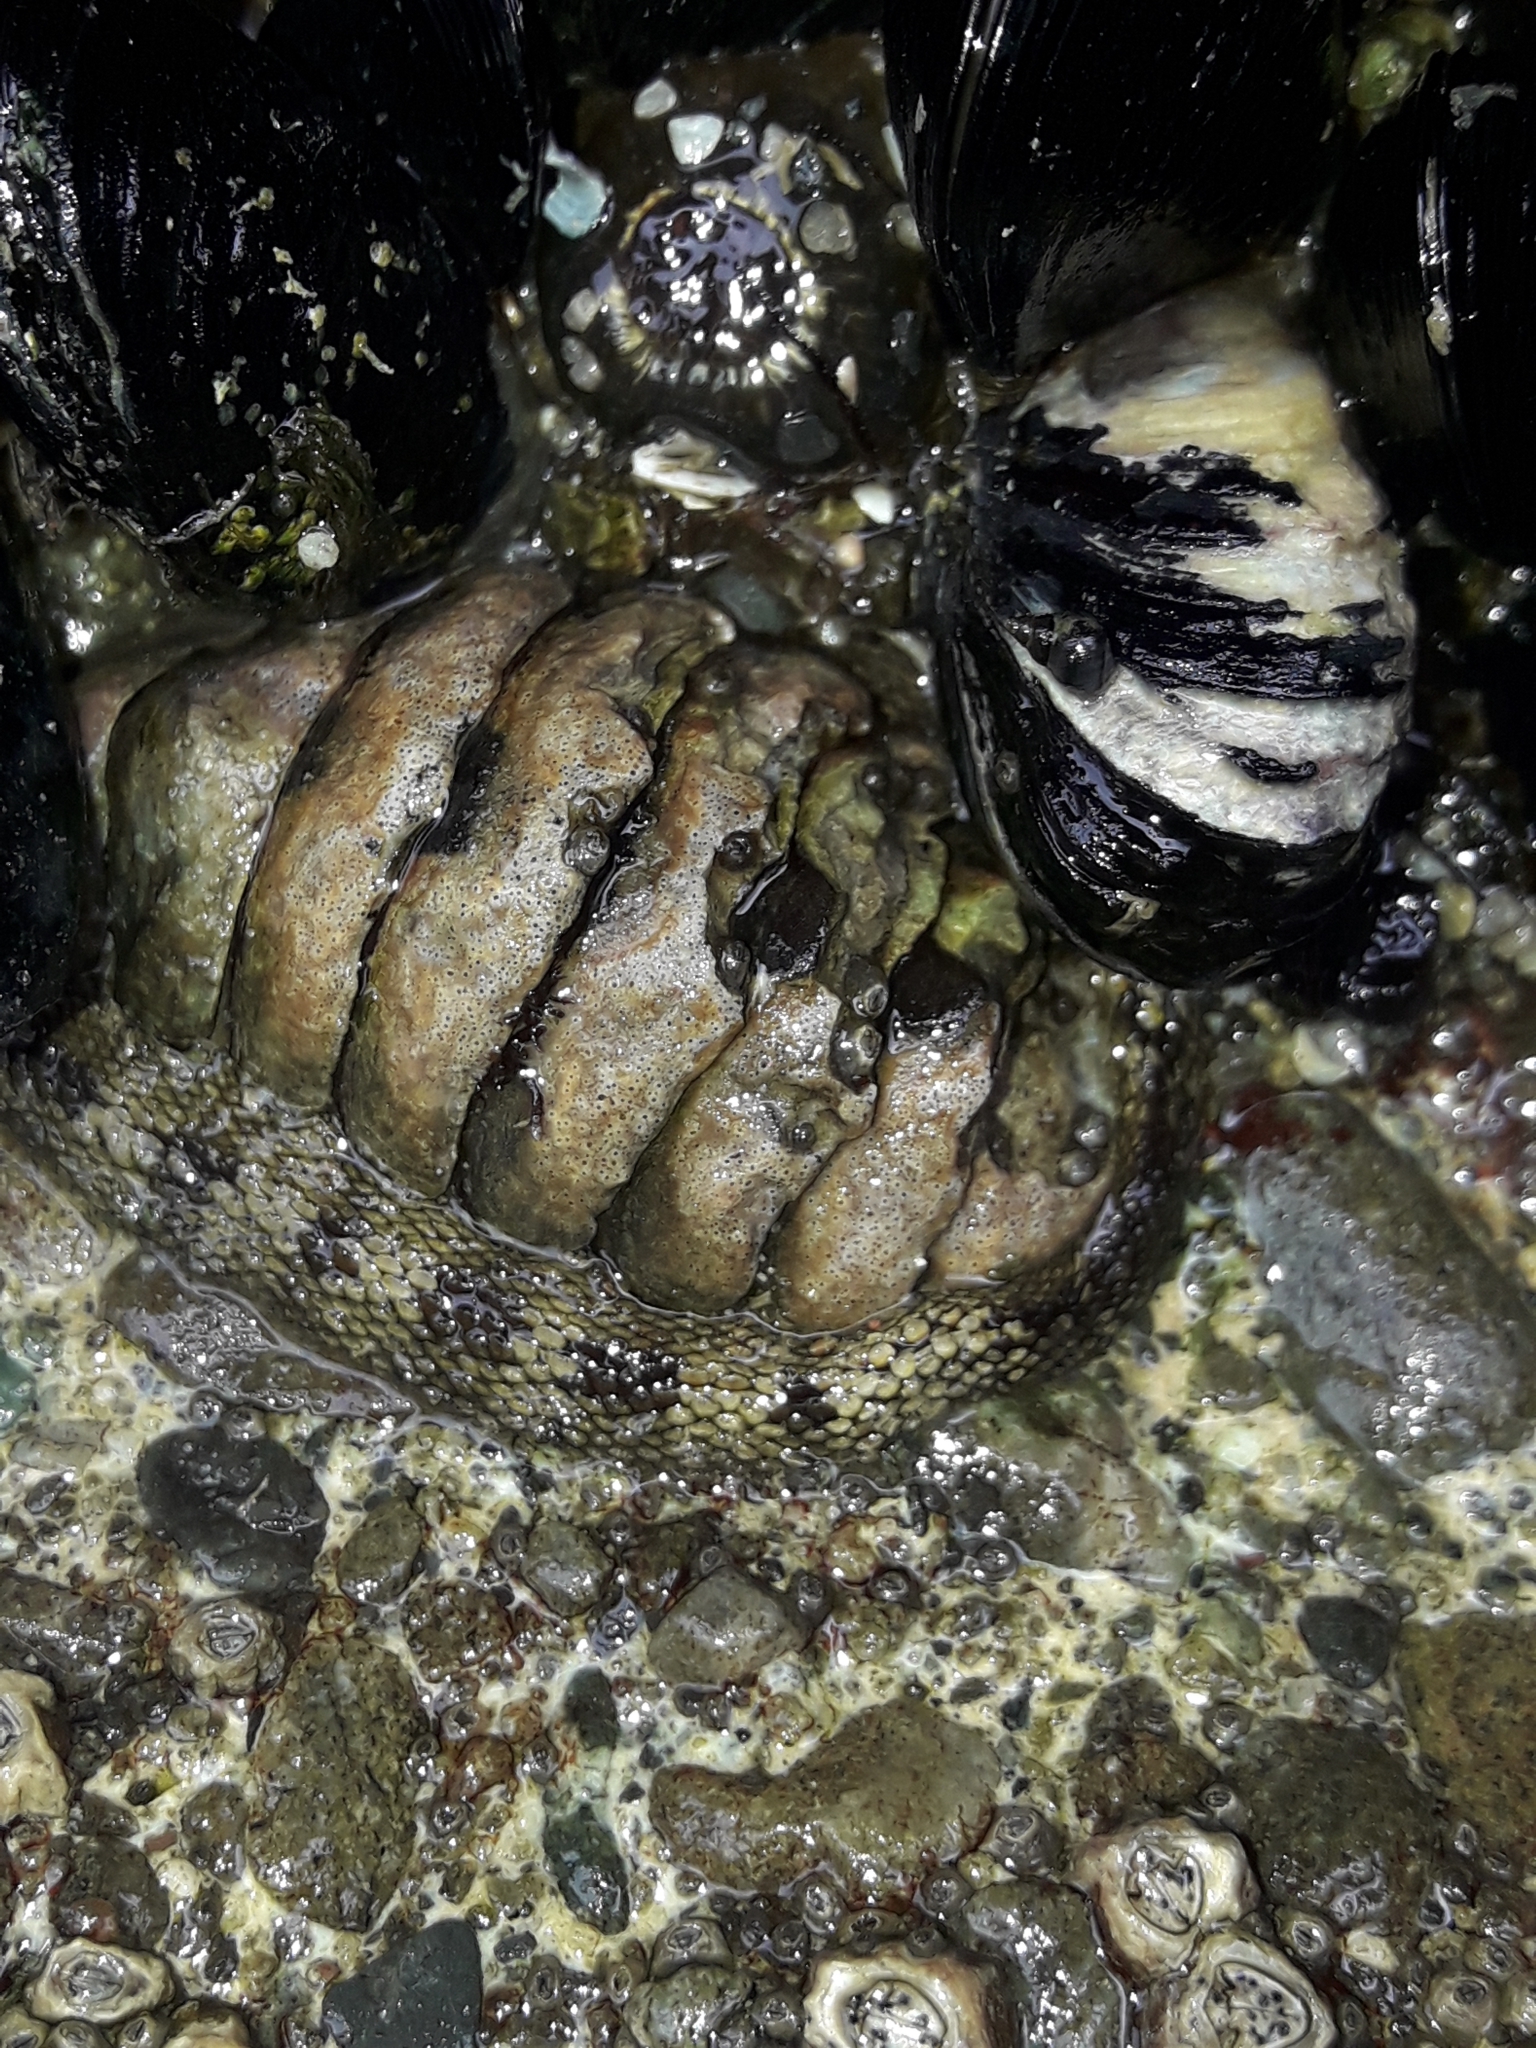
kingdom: Animalia
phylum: Mollusca
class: Polyplacophora
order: Chitonida
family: Chitonidae
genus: Sypharochiton
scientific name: Sypharochiton pelliserpentis
